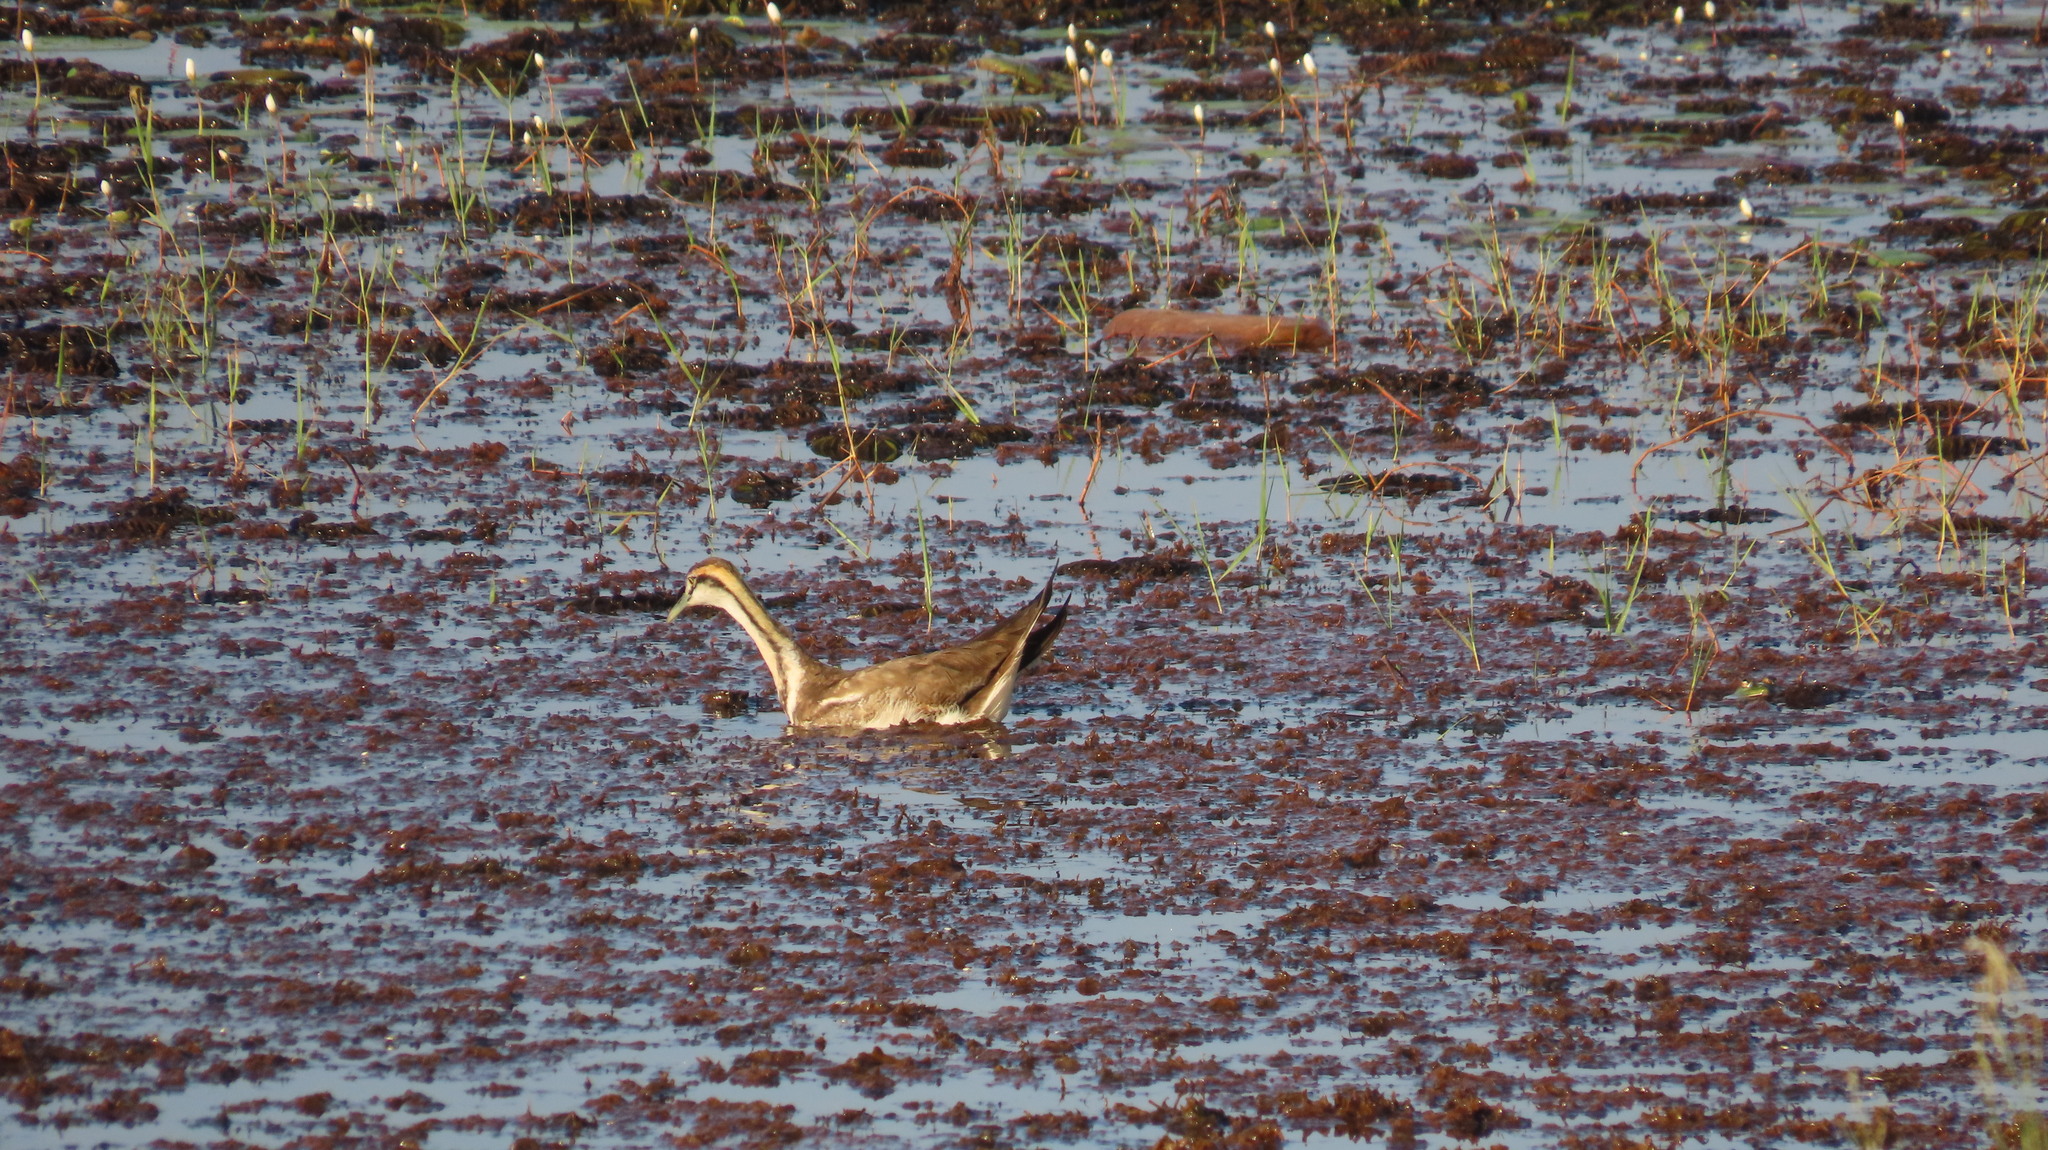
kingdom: Animalia
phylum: Chordata
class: Aves
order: Charadriiformes
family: Jacanidae
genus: Hydrophasianus
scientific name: Hydrophasianus chirurgus
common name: Pheasant-tailed jacana
